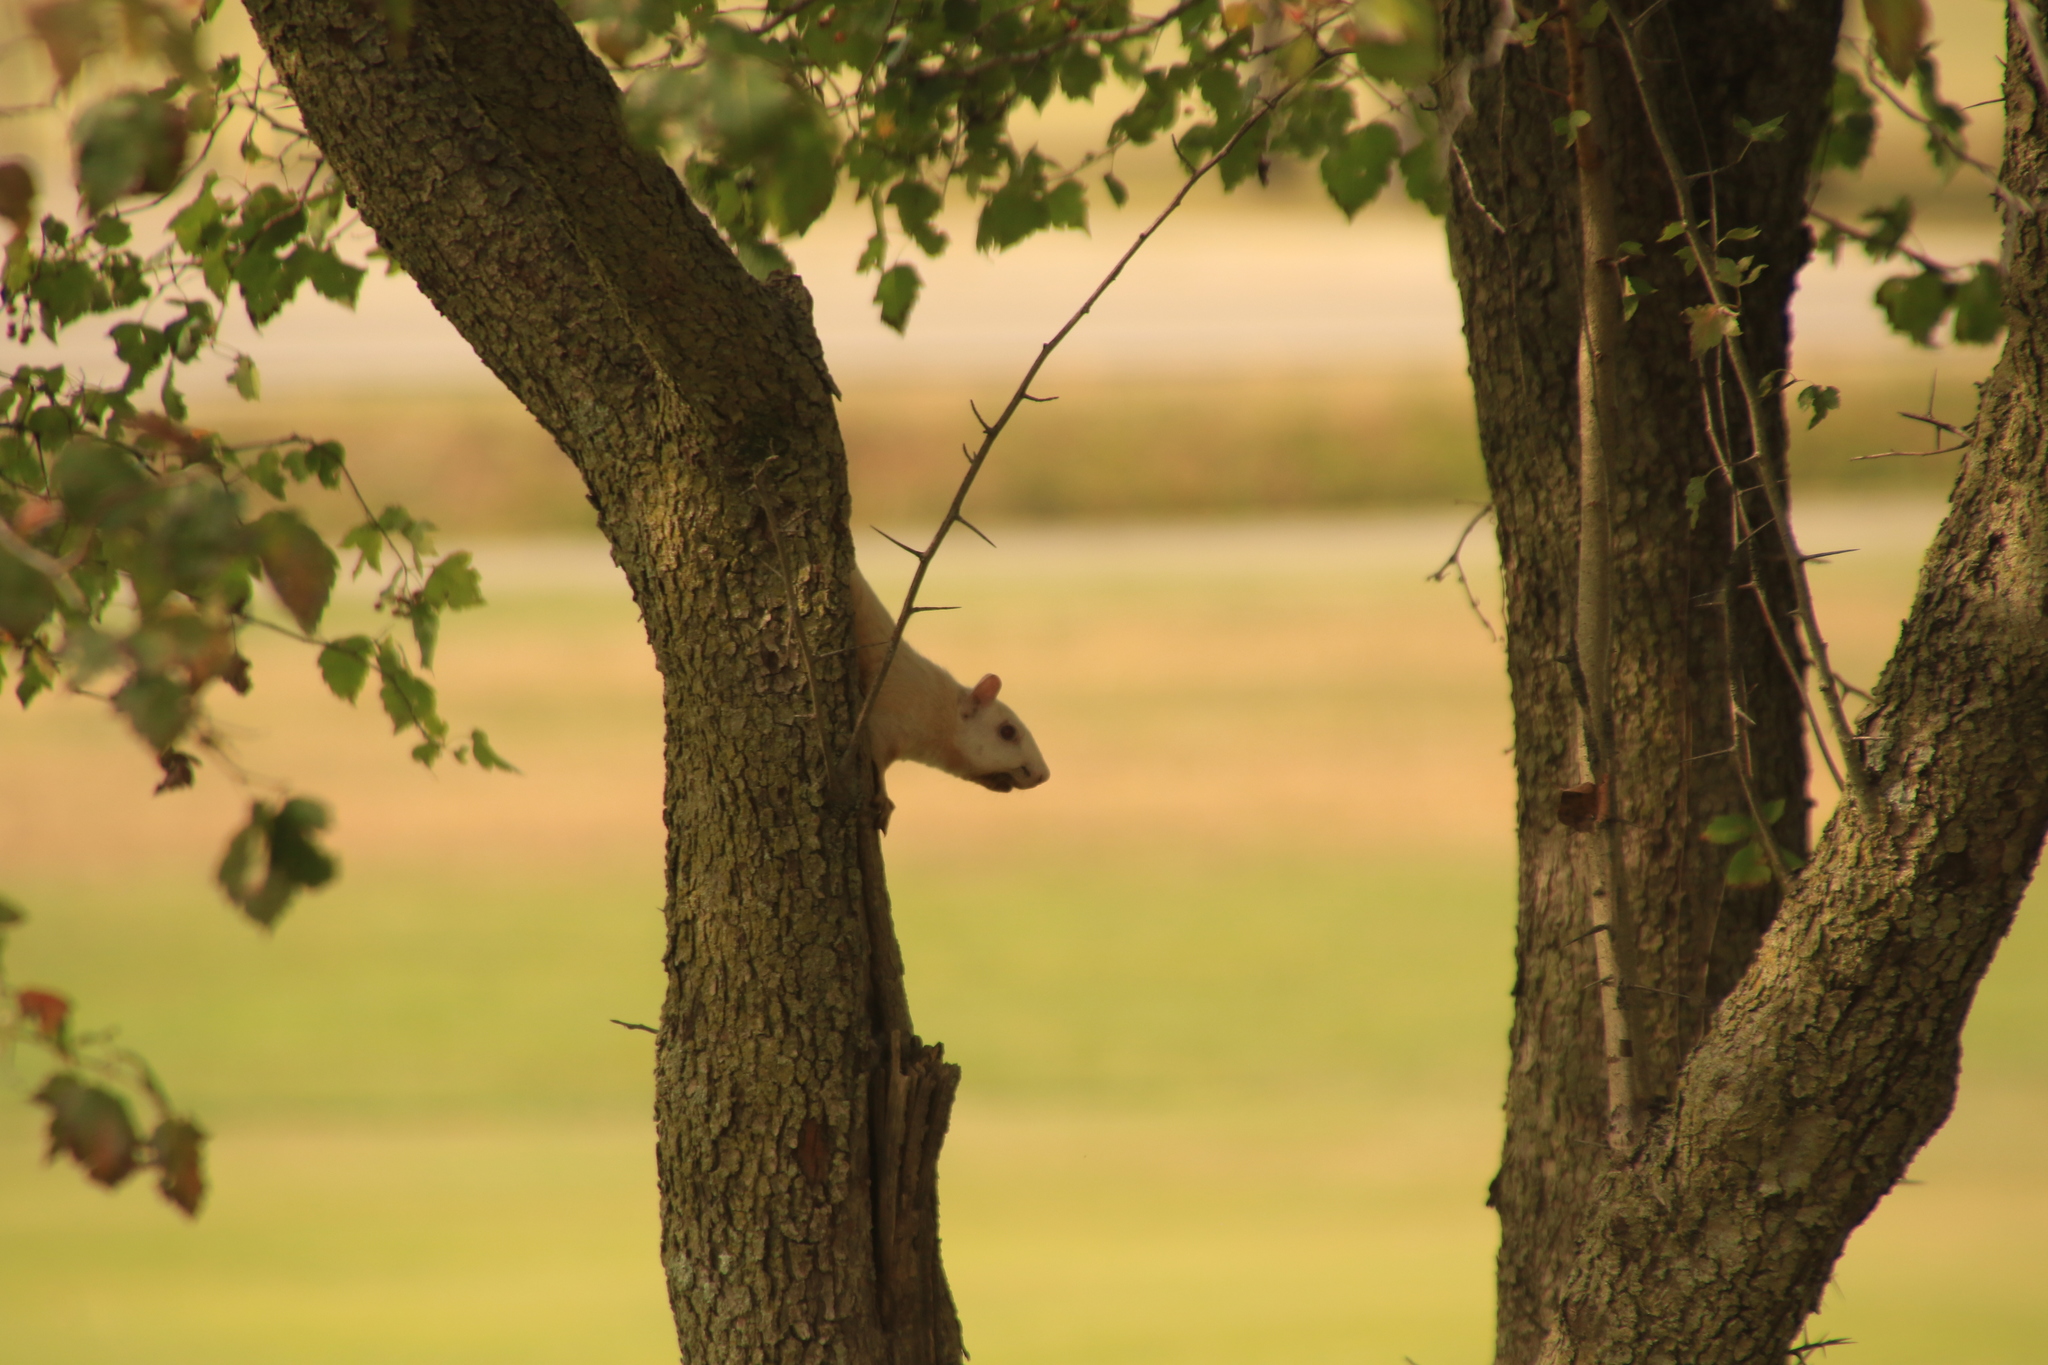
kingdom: Animalia
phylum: Chordata
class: Mammalia
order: Rodentia
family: Sciuridae
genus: Sciurus
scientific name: Sciurus carolinensis
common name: Eastern gray squirrel
